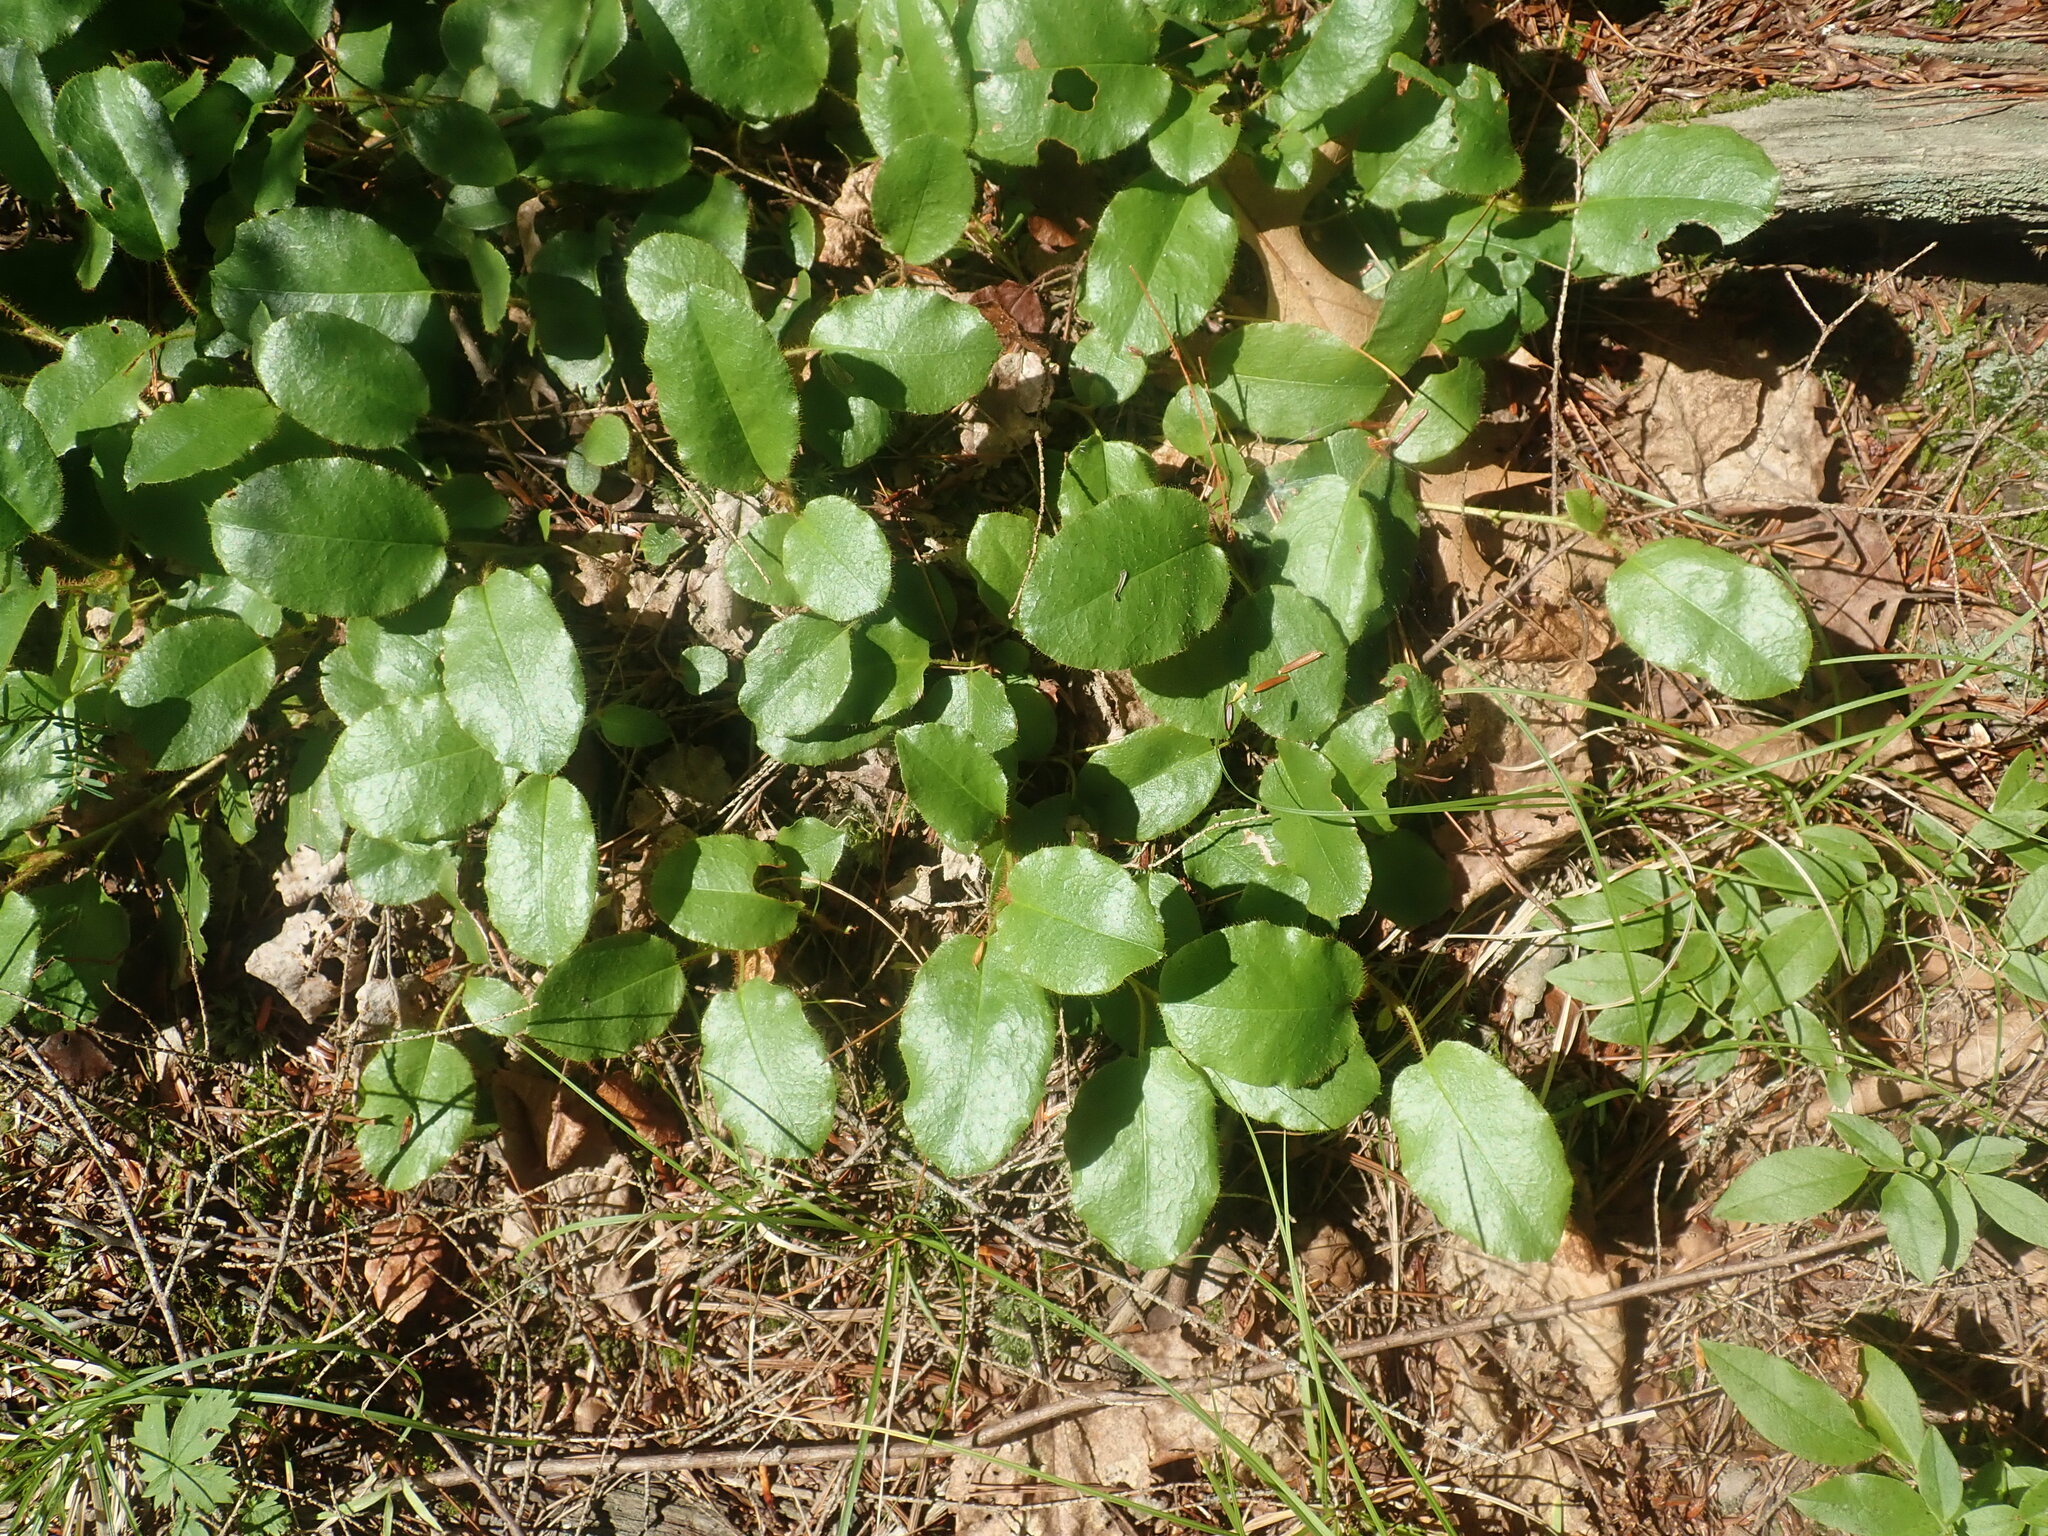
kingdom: Plantae
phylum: Tracheophyta
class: Magnoliopsida
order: Ericales
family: Ericaceae
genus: Epigaea
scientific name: Epigaea repens
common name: Gravelroot
